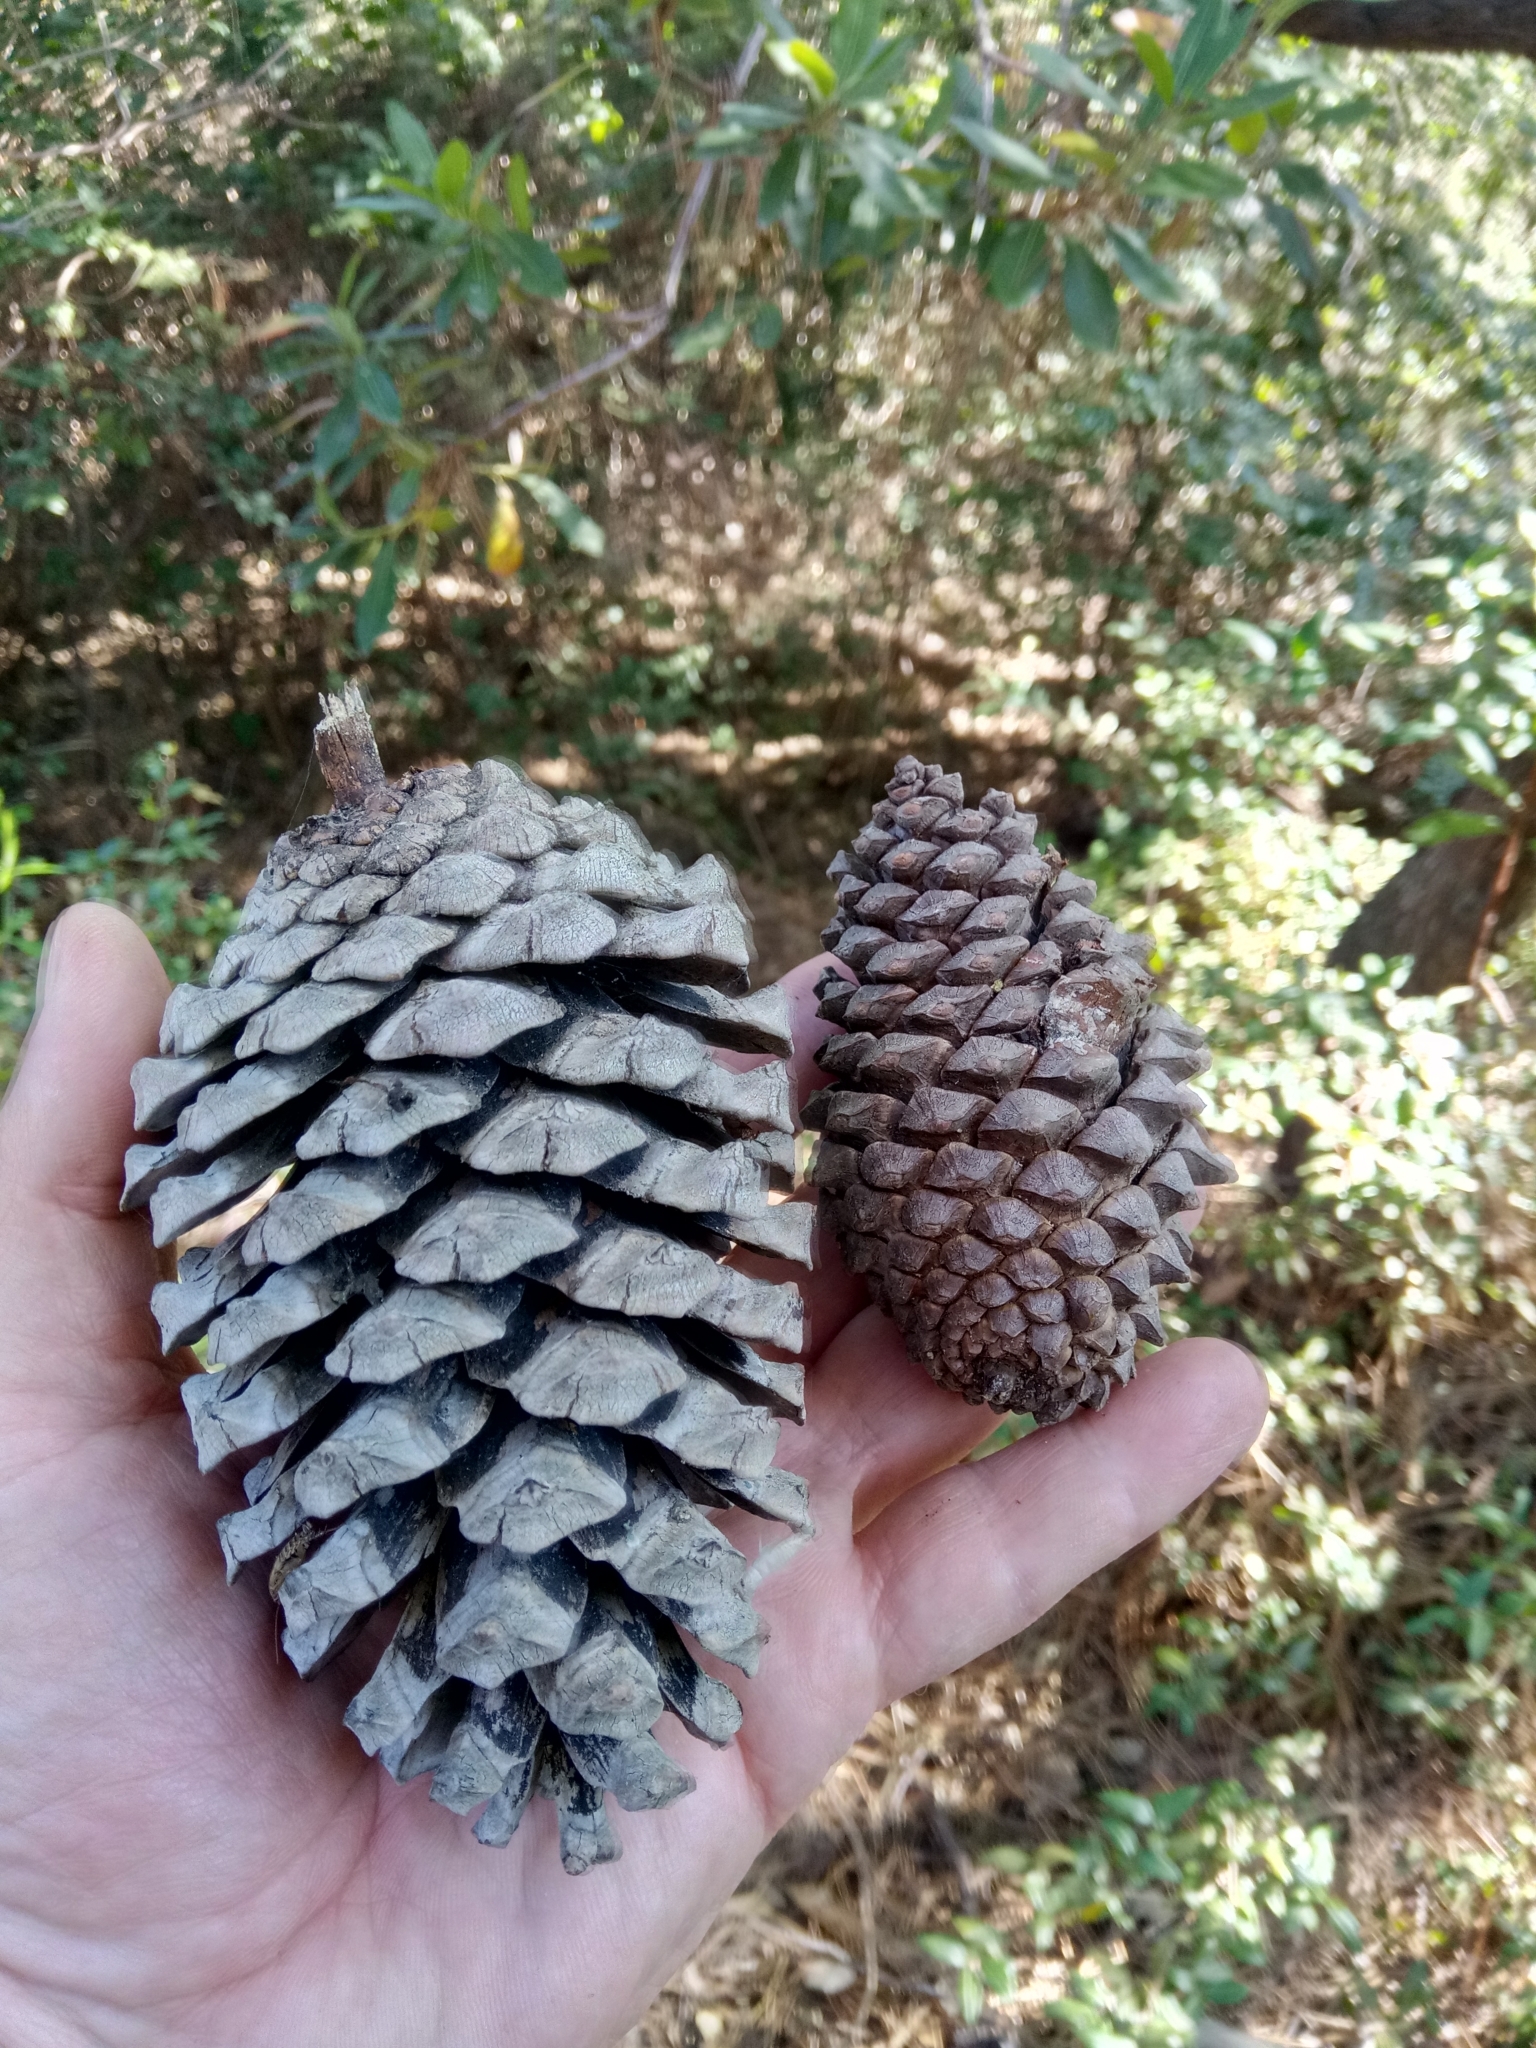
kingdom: Plantae
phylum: Tracheophyta
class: Pinopsida
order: Pinales
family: Pinaceae
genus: Pinus
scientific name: Pinus pinaster
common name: Maritime pine
